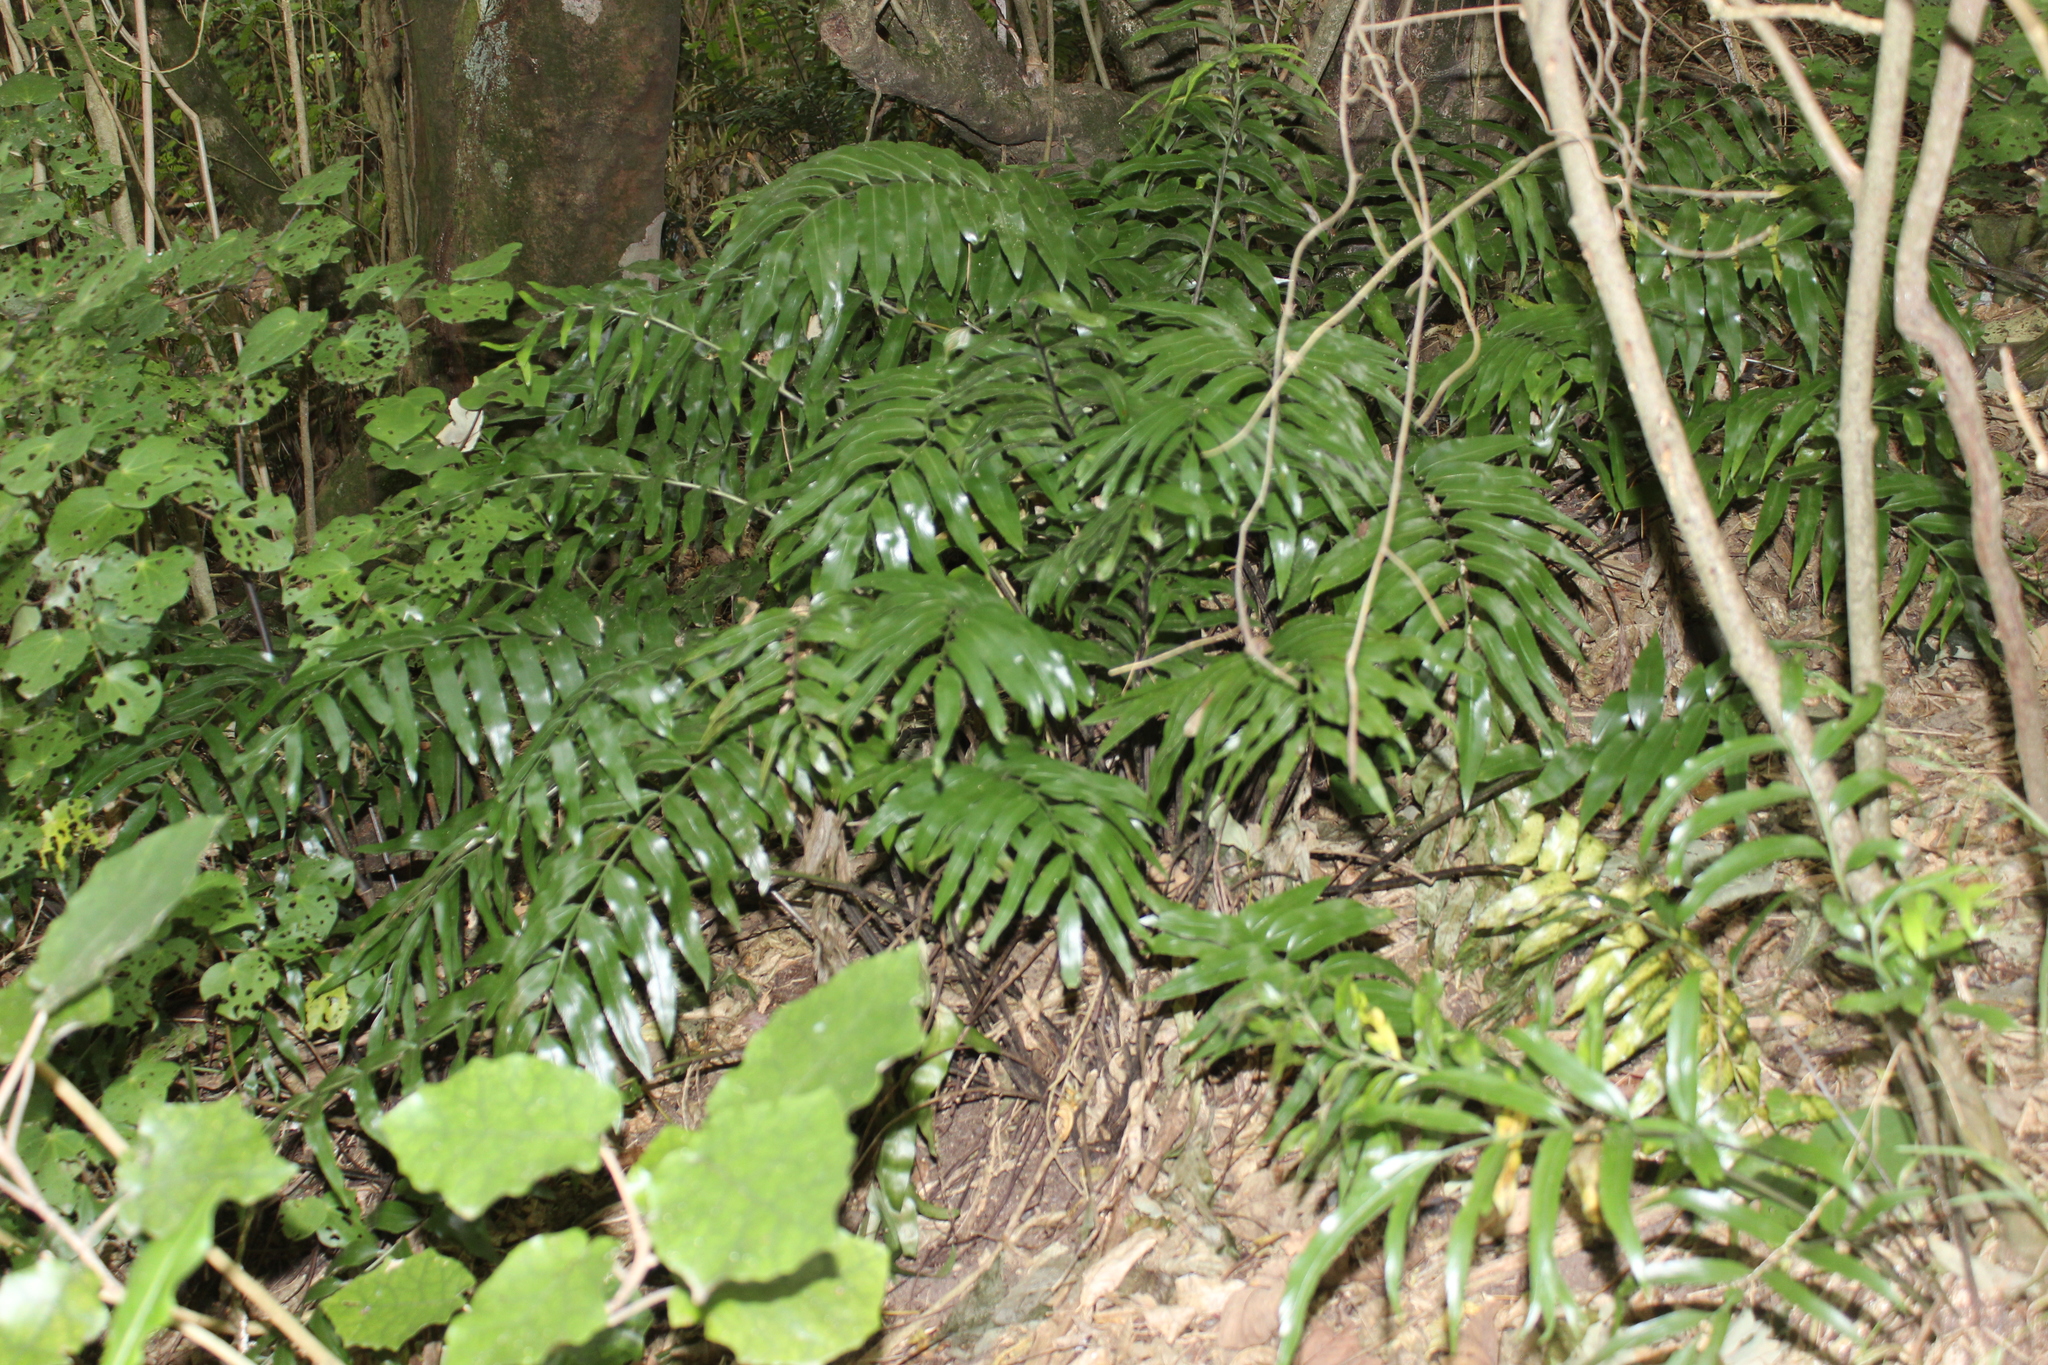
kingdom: Plantae
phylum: Tracheophyta
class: Polypodiopsida
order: Polypodiales
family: Aspleniaceae
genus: Asplenium
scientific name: Asplenium oblongifolium
